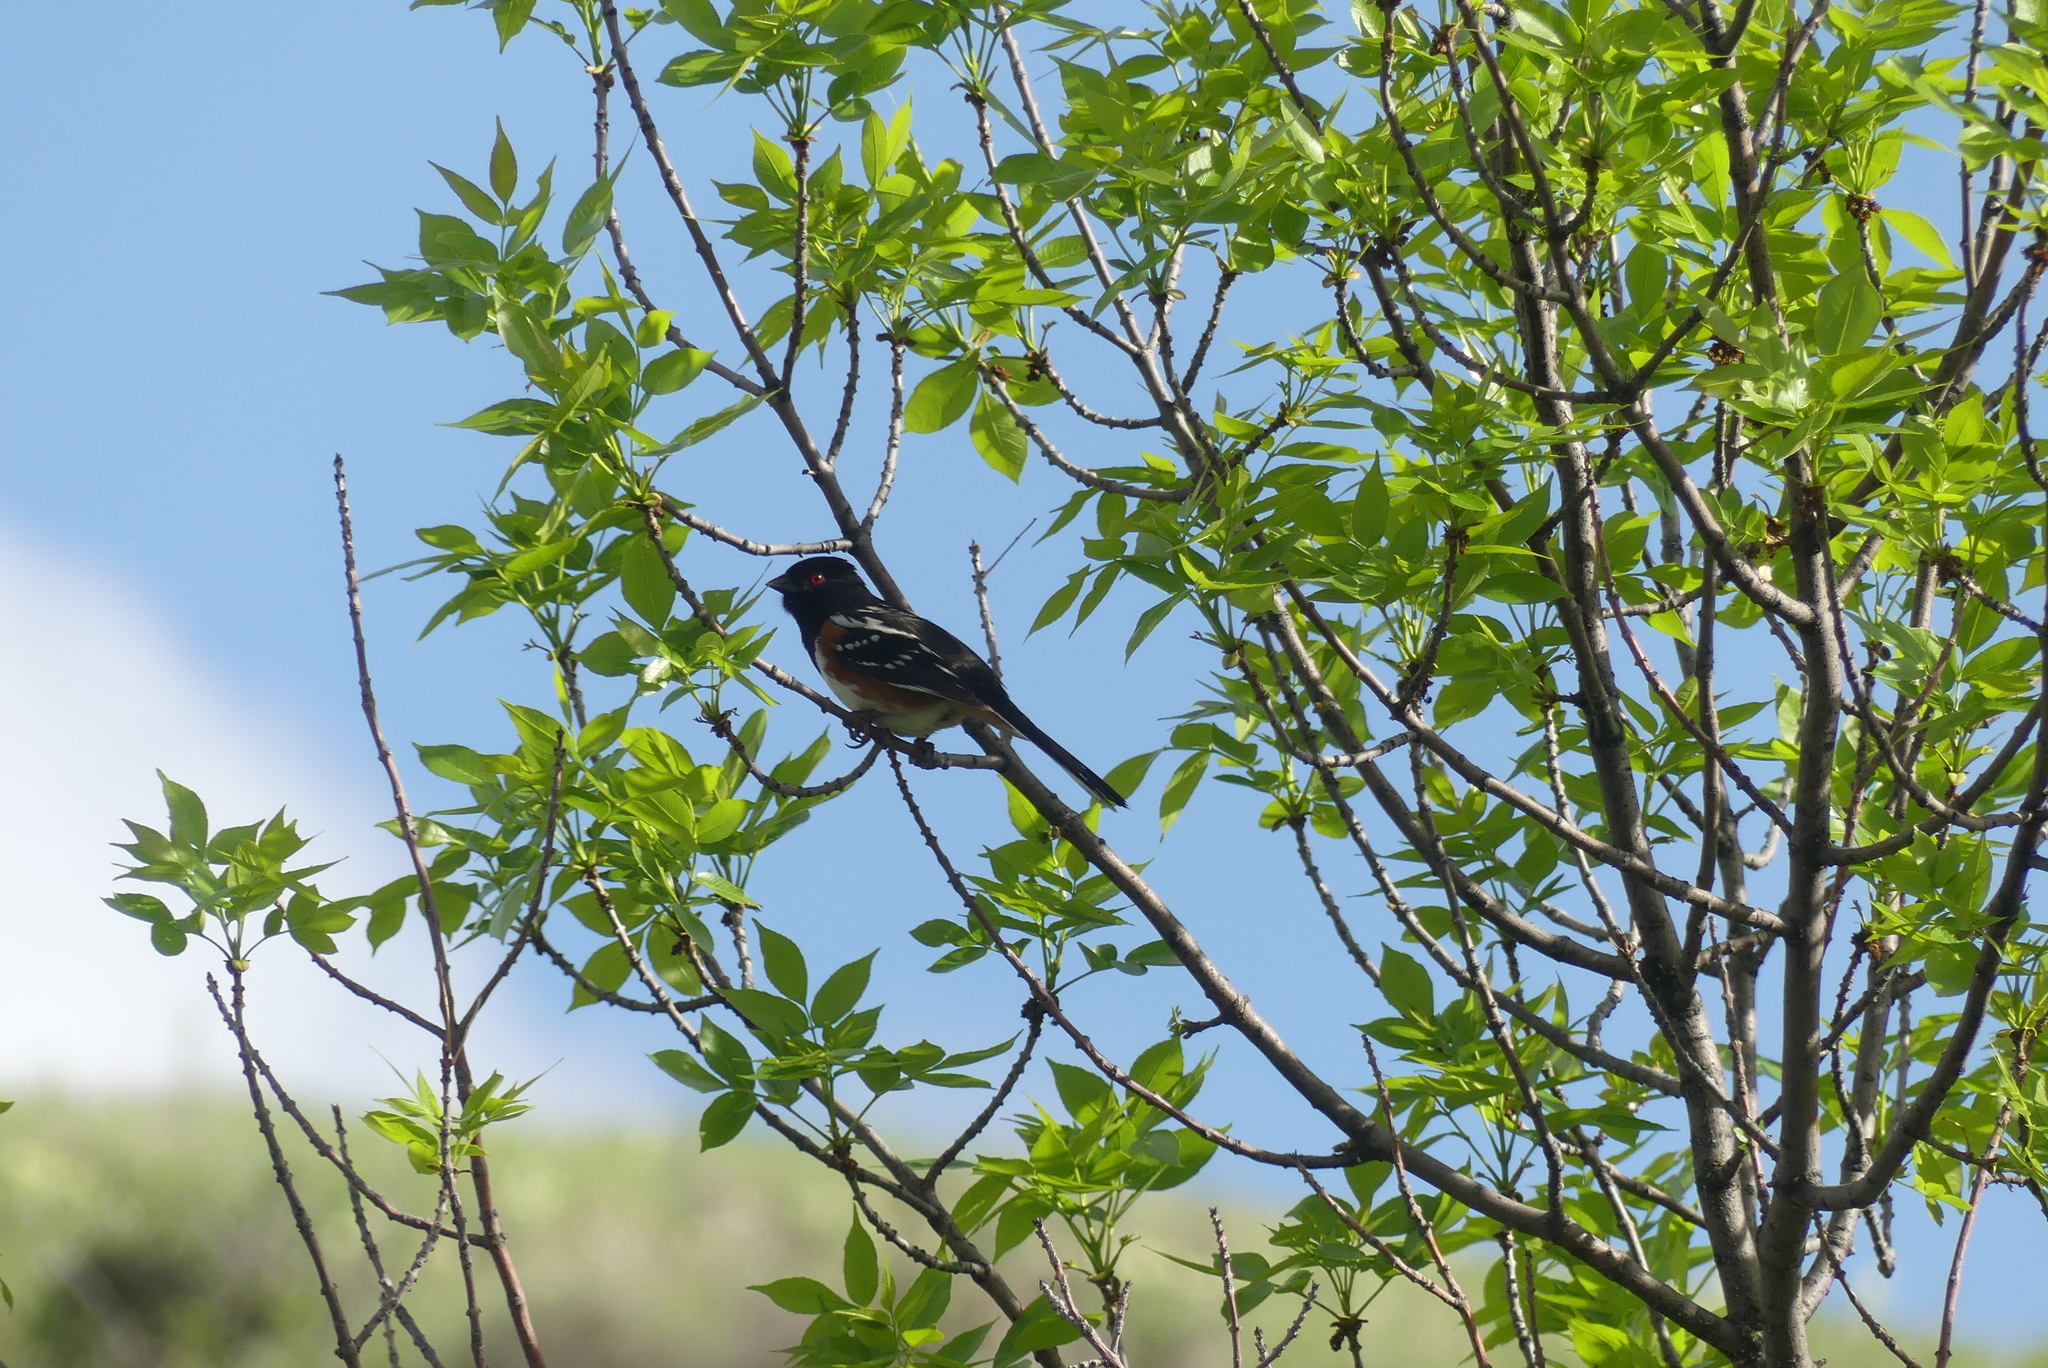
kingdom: Animalia
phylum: Chordata
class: Aves
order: Passeriformes
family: Passerellidae
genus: Pipilo
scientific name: Pipilo maculatus
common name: Spotted towhee
